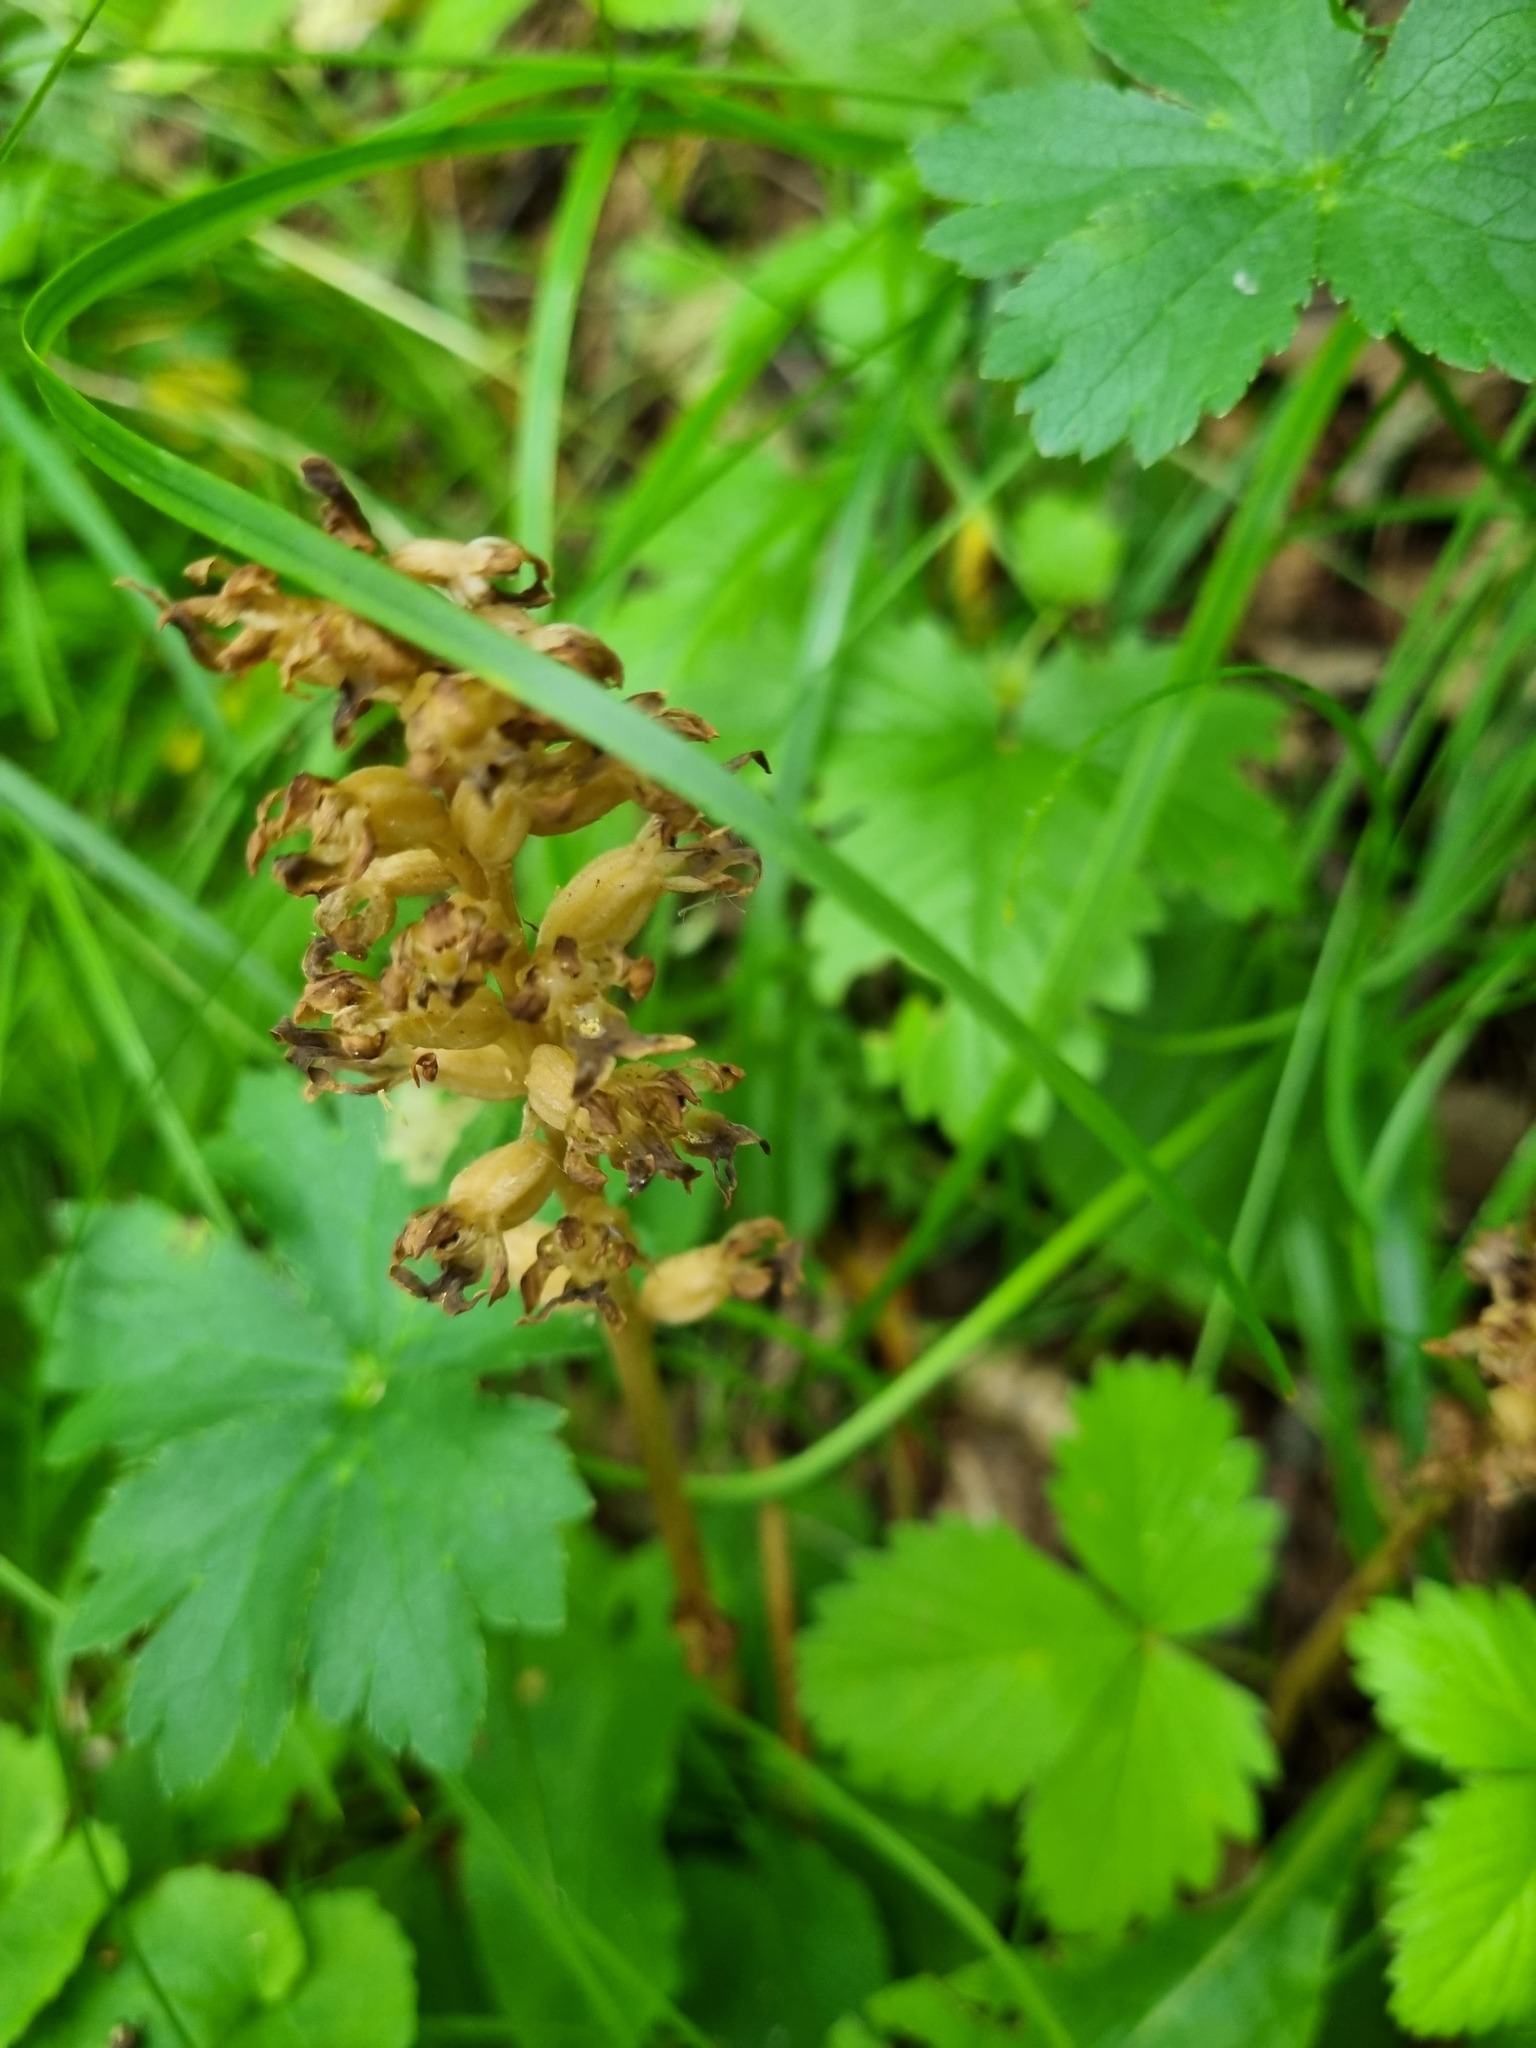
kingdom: Plantae
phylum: Tracheophyta
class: Liliopsida
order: Asparagales
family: Orchidaceae
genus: Neottia
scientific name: Neottia nidus-avis
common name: Bird's-nest orchid
